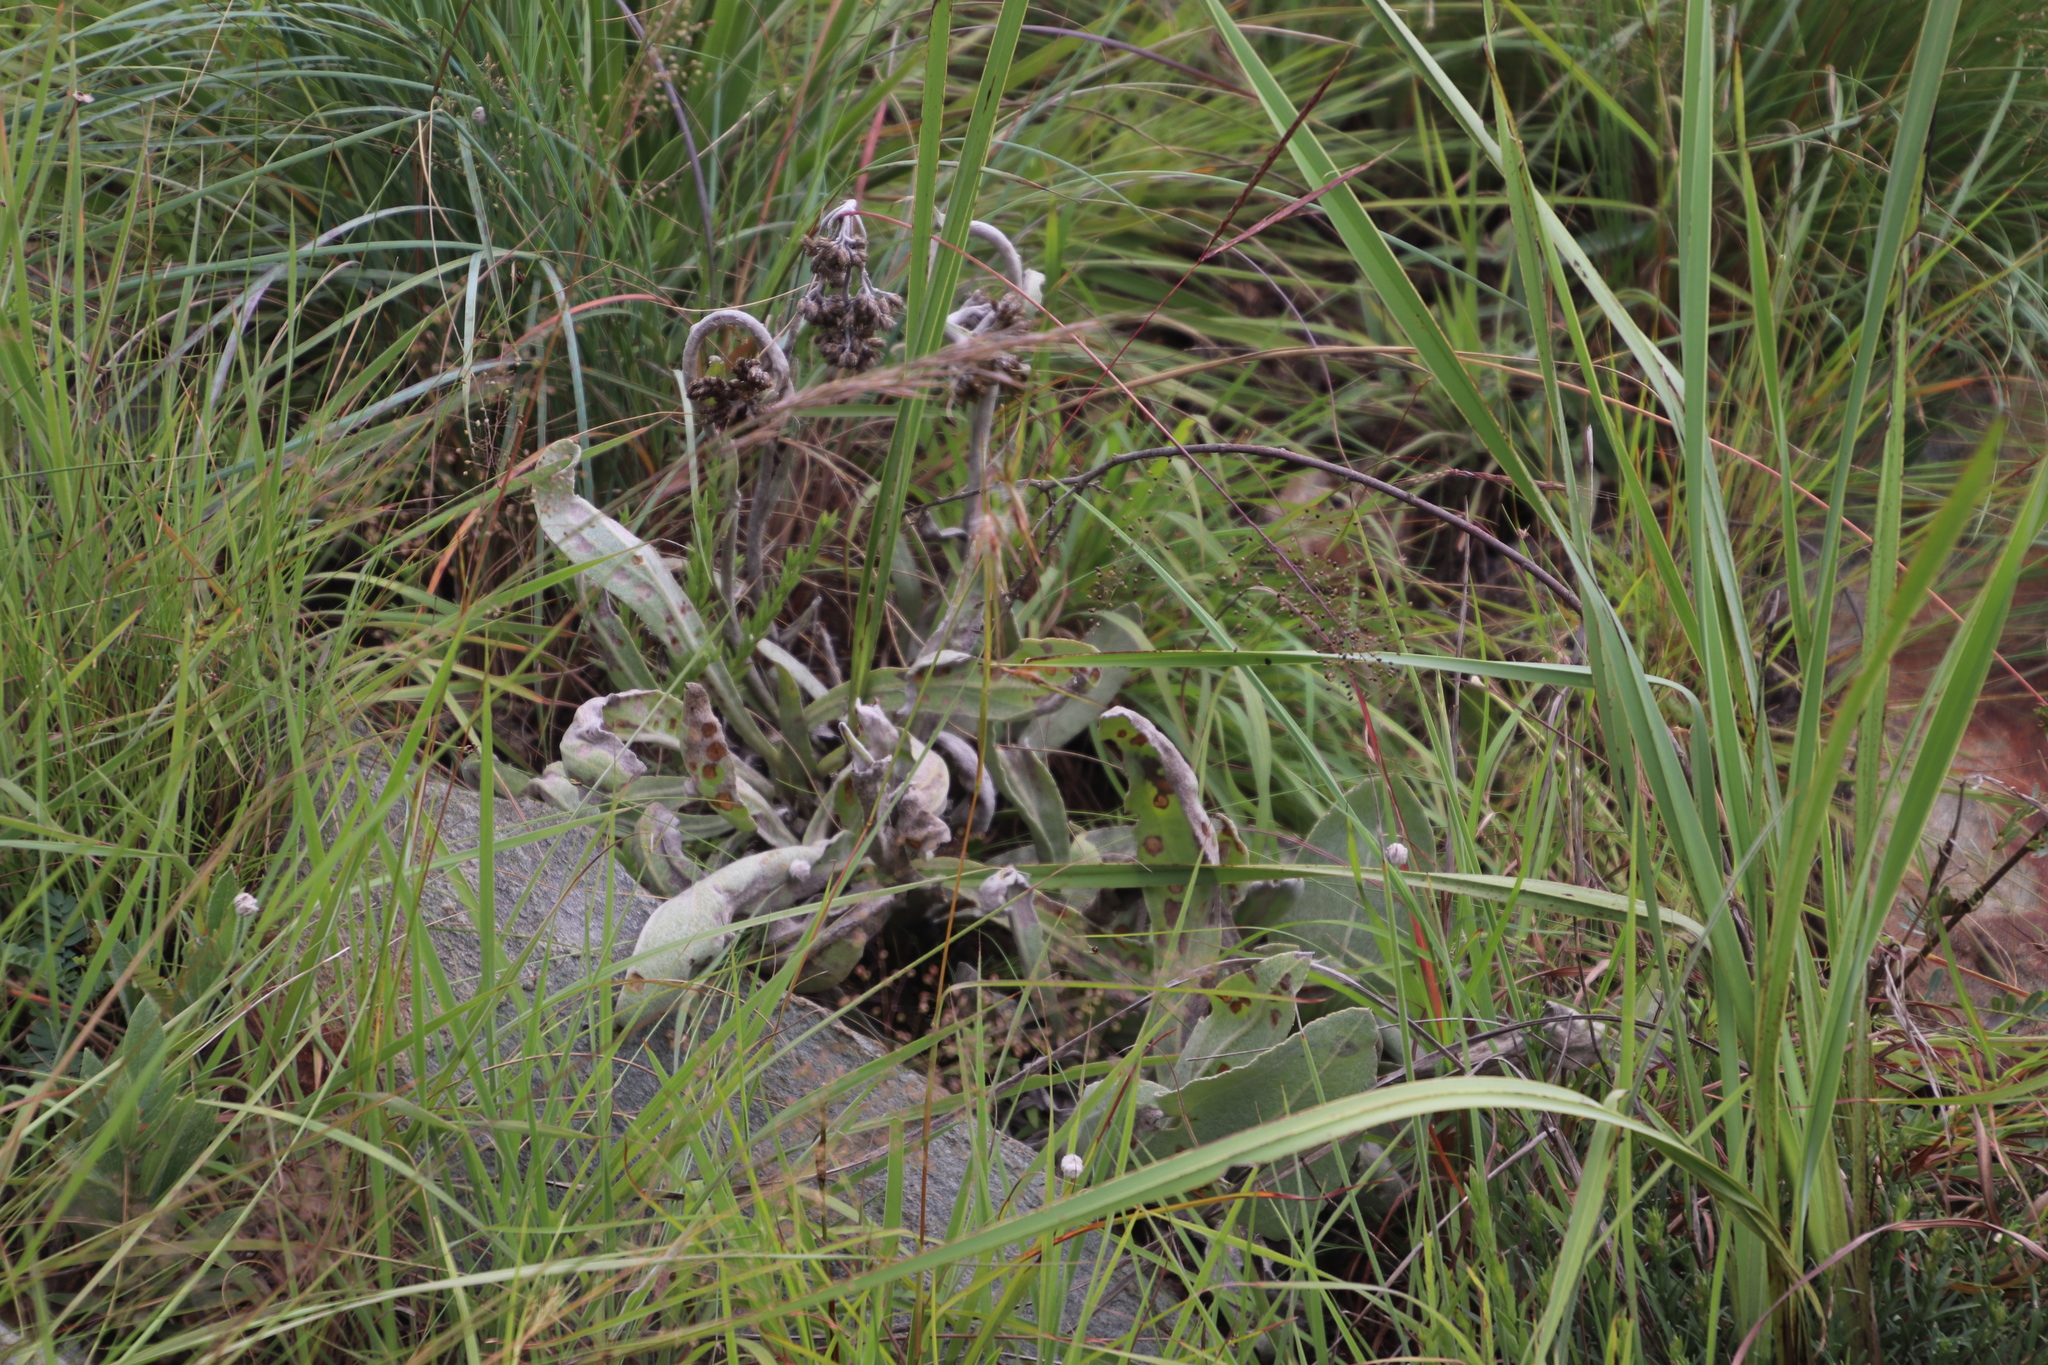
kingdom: Plantae
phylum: Tracheophyta
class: Magnoliopsida
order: Asterales
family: Asteraceae
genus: Helichrysum
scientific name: Helichrysum acutatum
